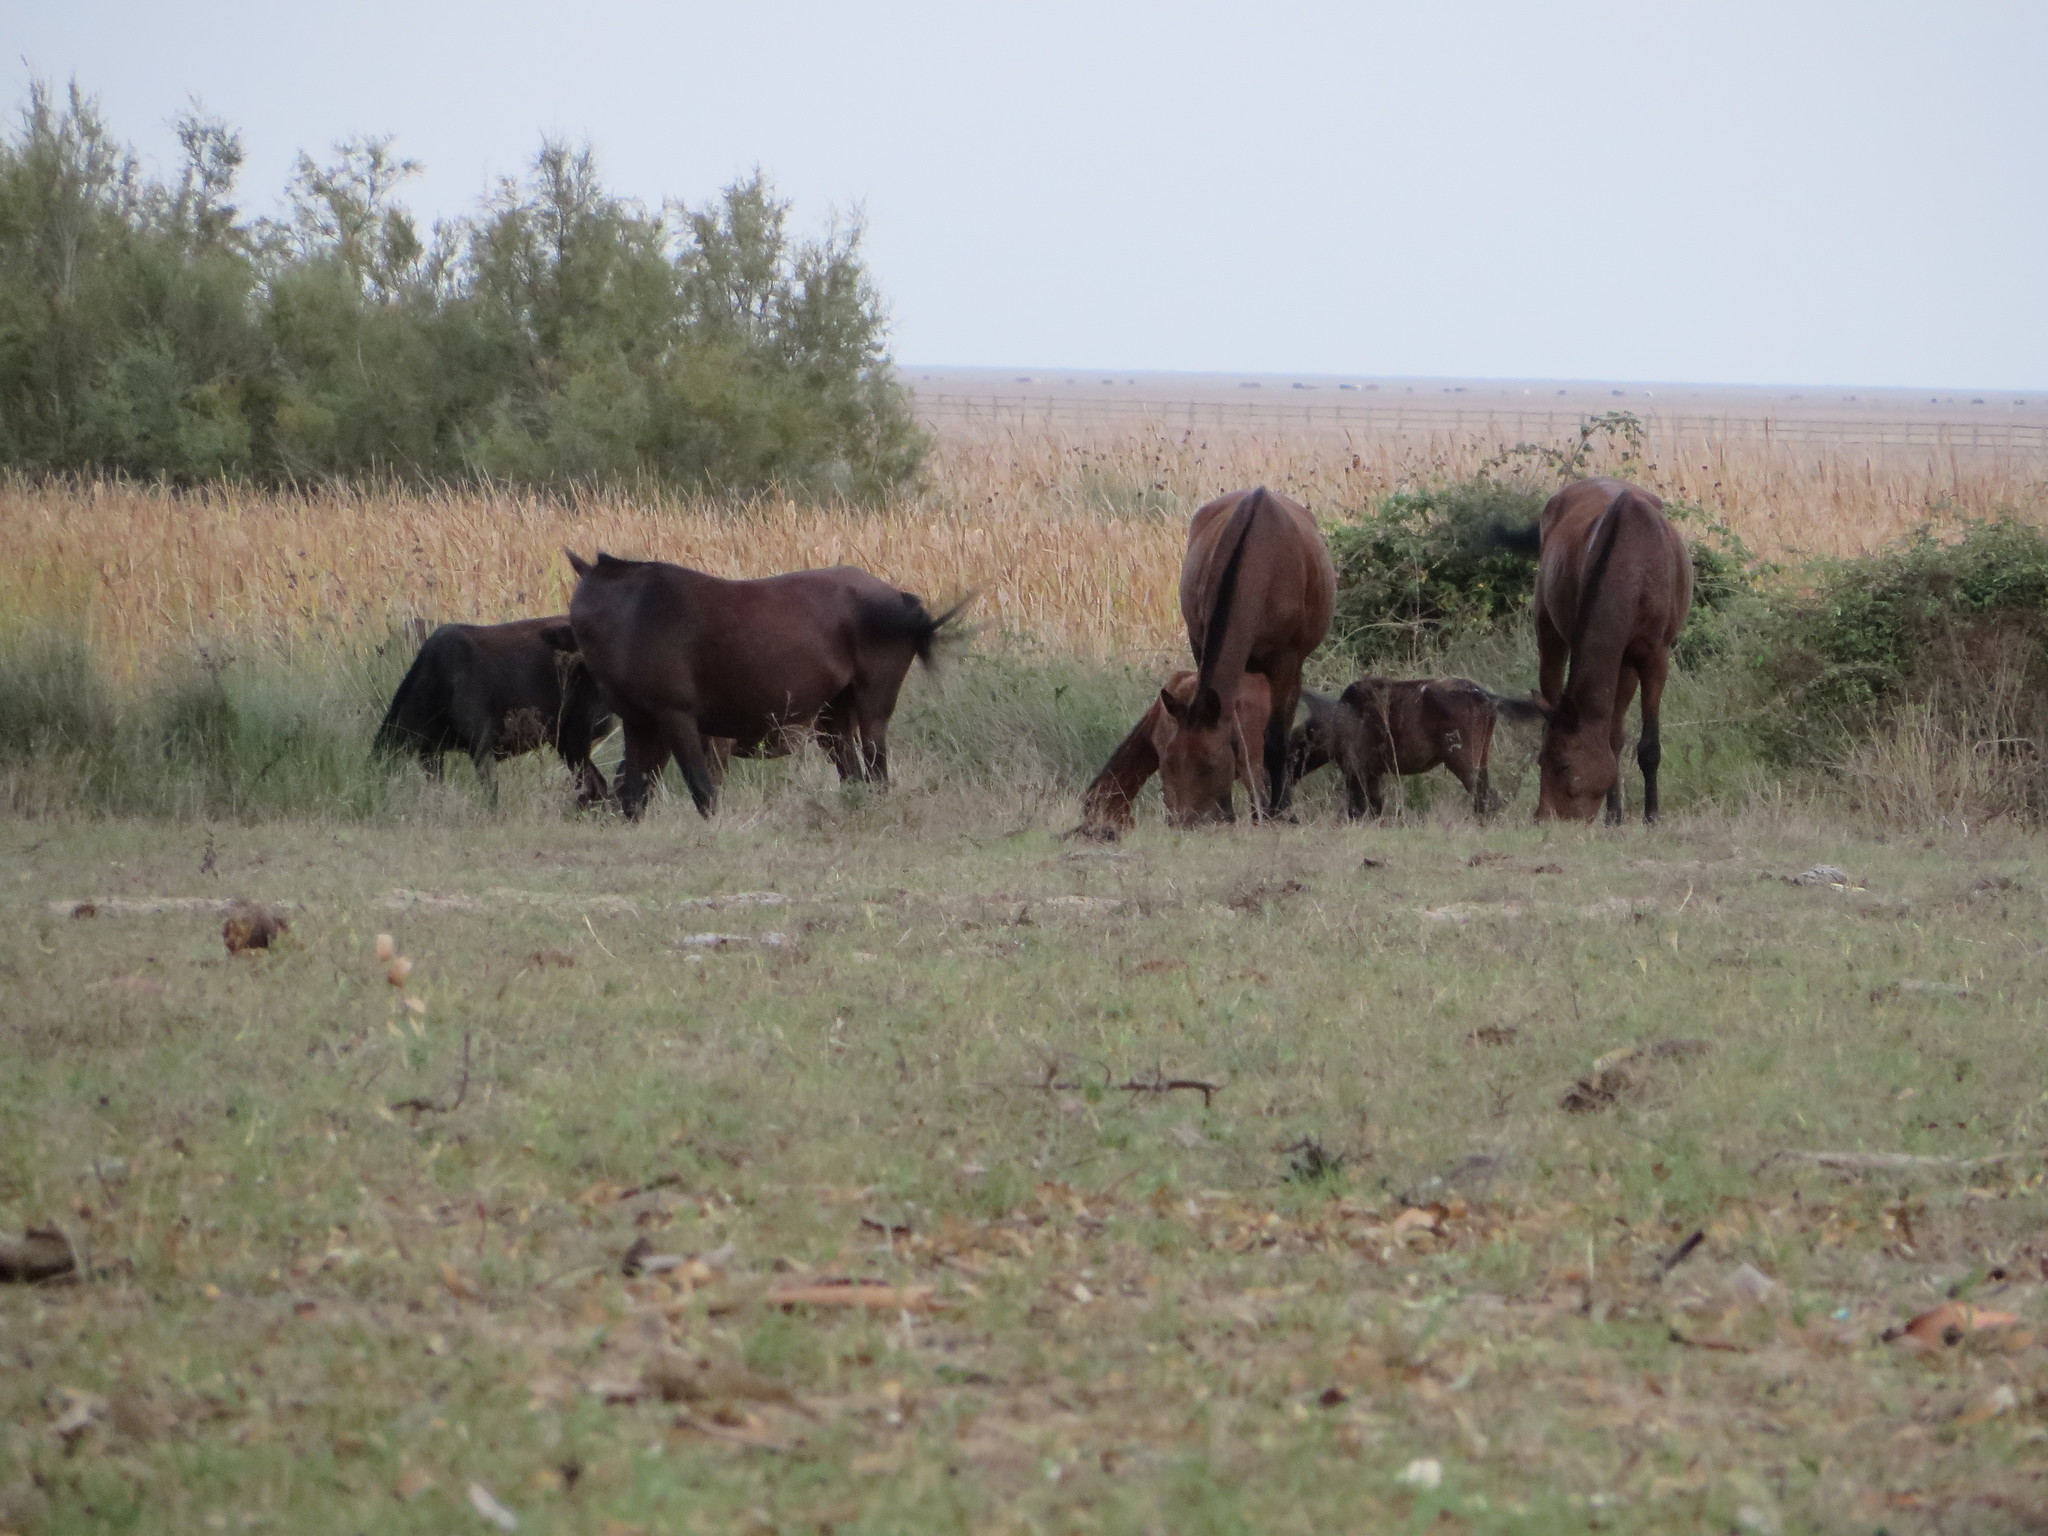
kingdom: Animalia
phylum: Chordata
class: Mammalia
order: Perissodactyla
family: Equidae
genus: Equus
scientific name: Equus caballus
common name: Horse
